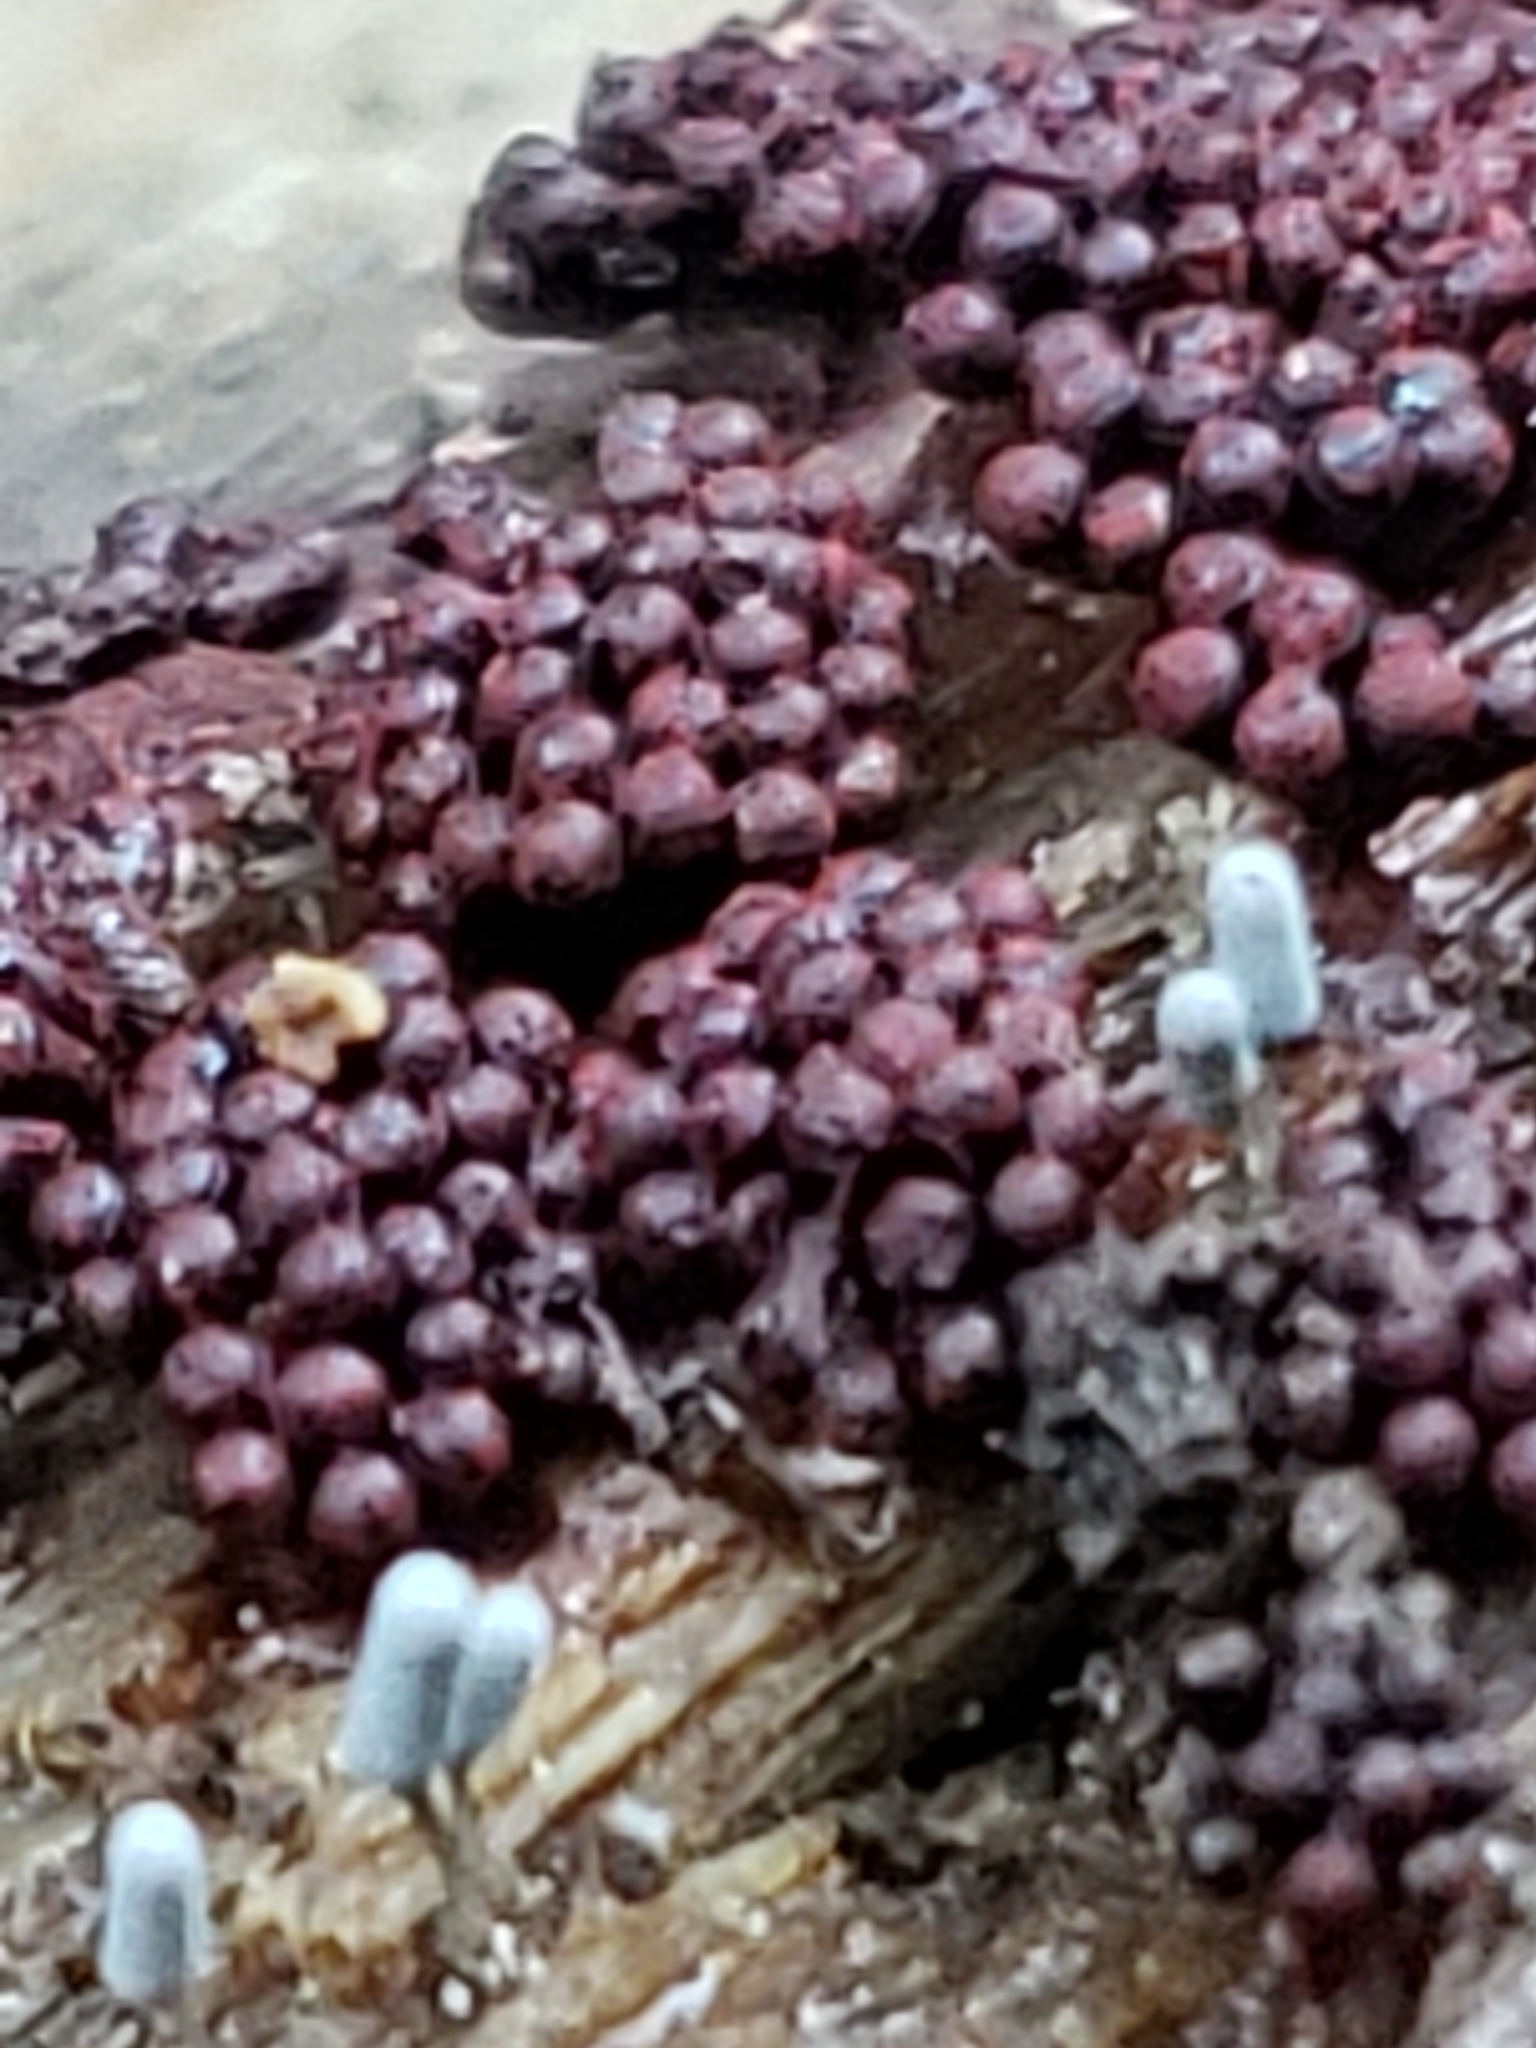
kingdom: Protozoa
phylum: Mycetozoa
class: Myxomycetes
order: Trichiales
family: Trichiaceae
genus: Metatrichia
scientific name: Metatrichia vesparia
